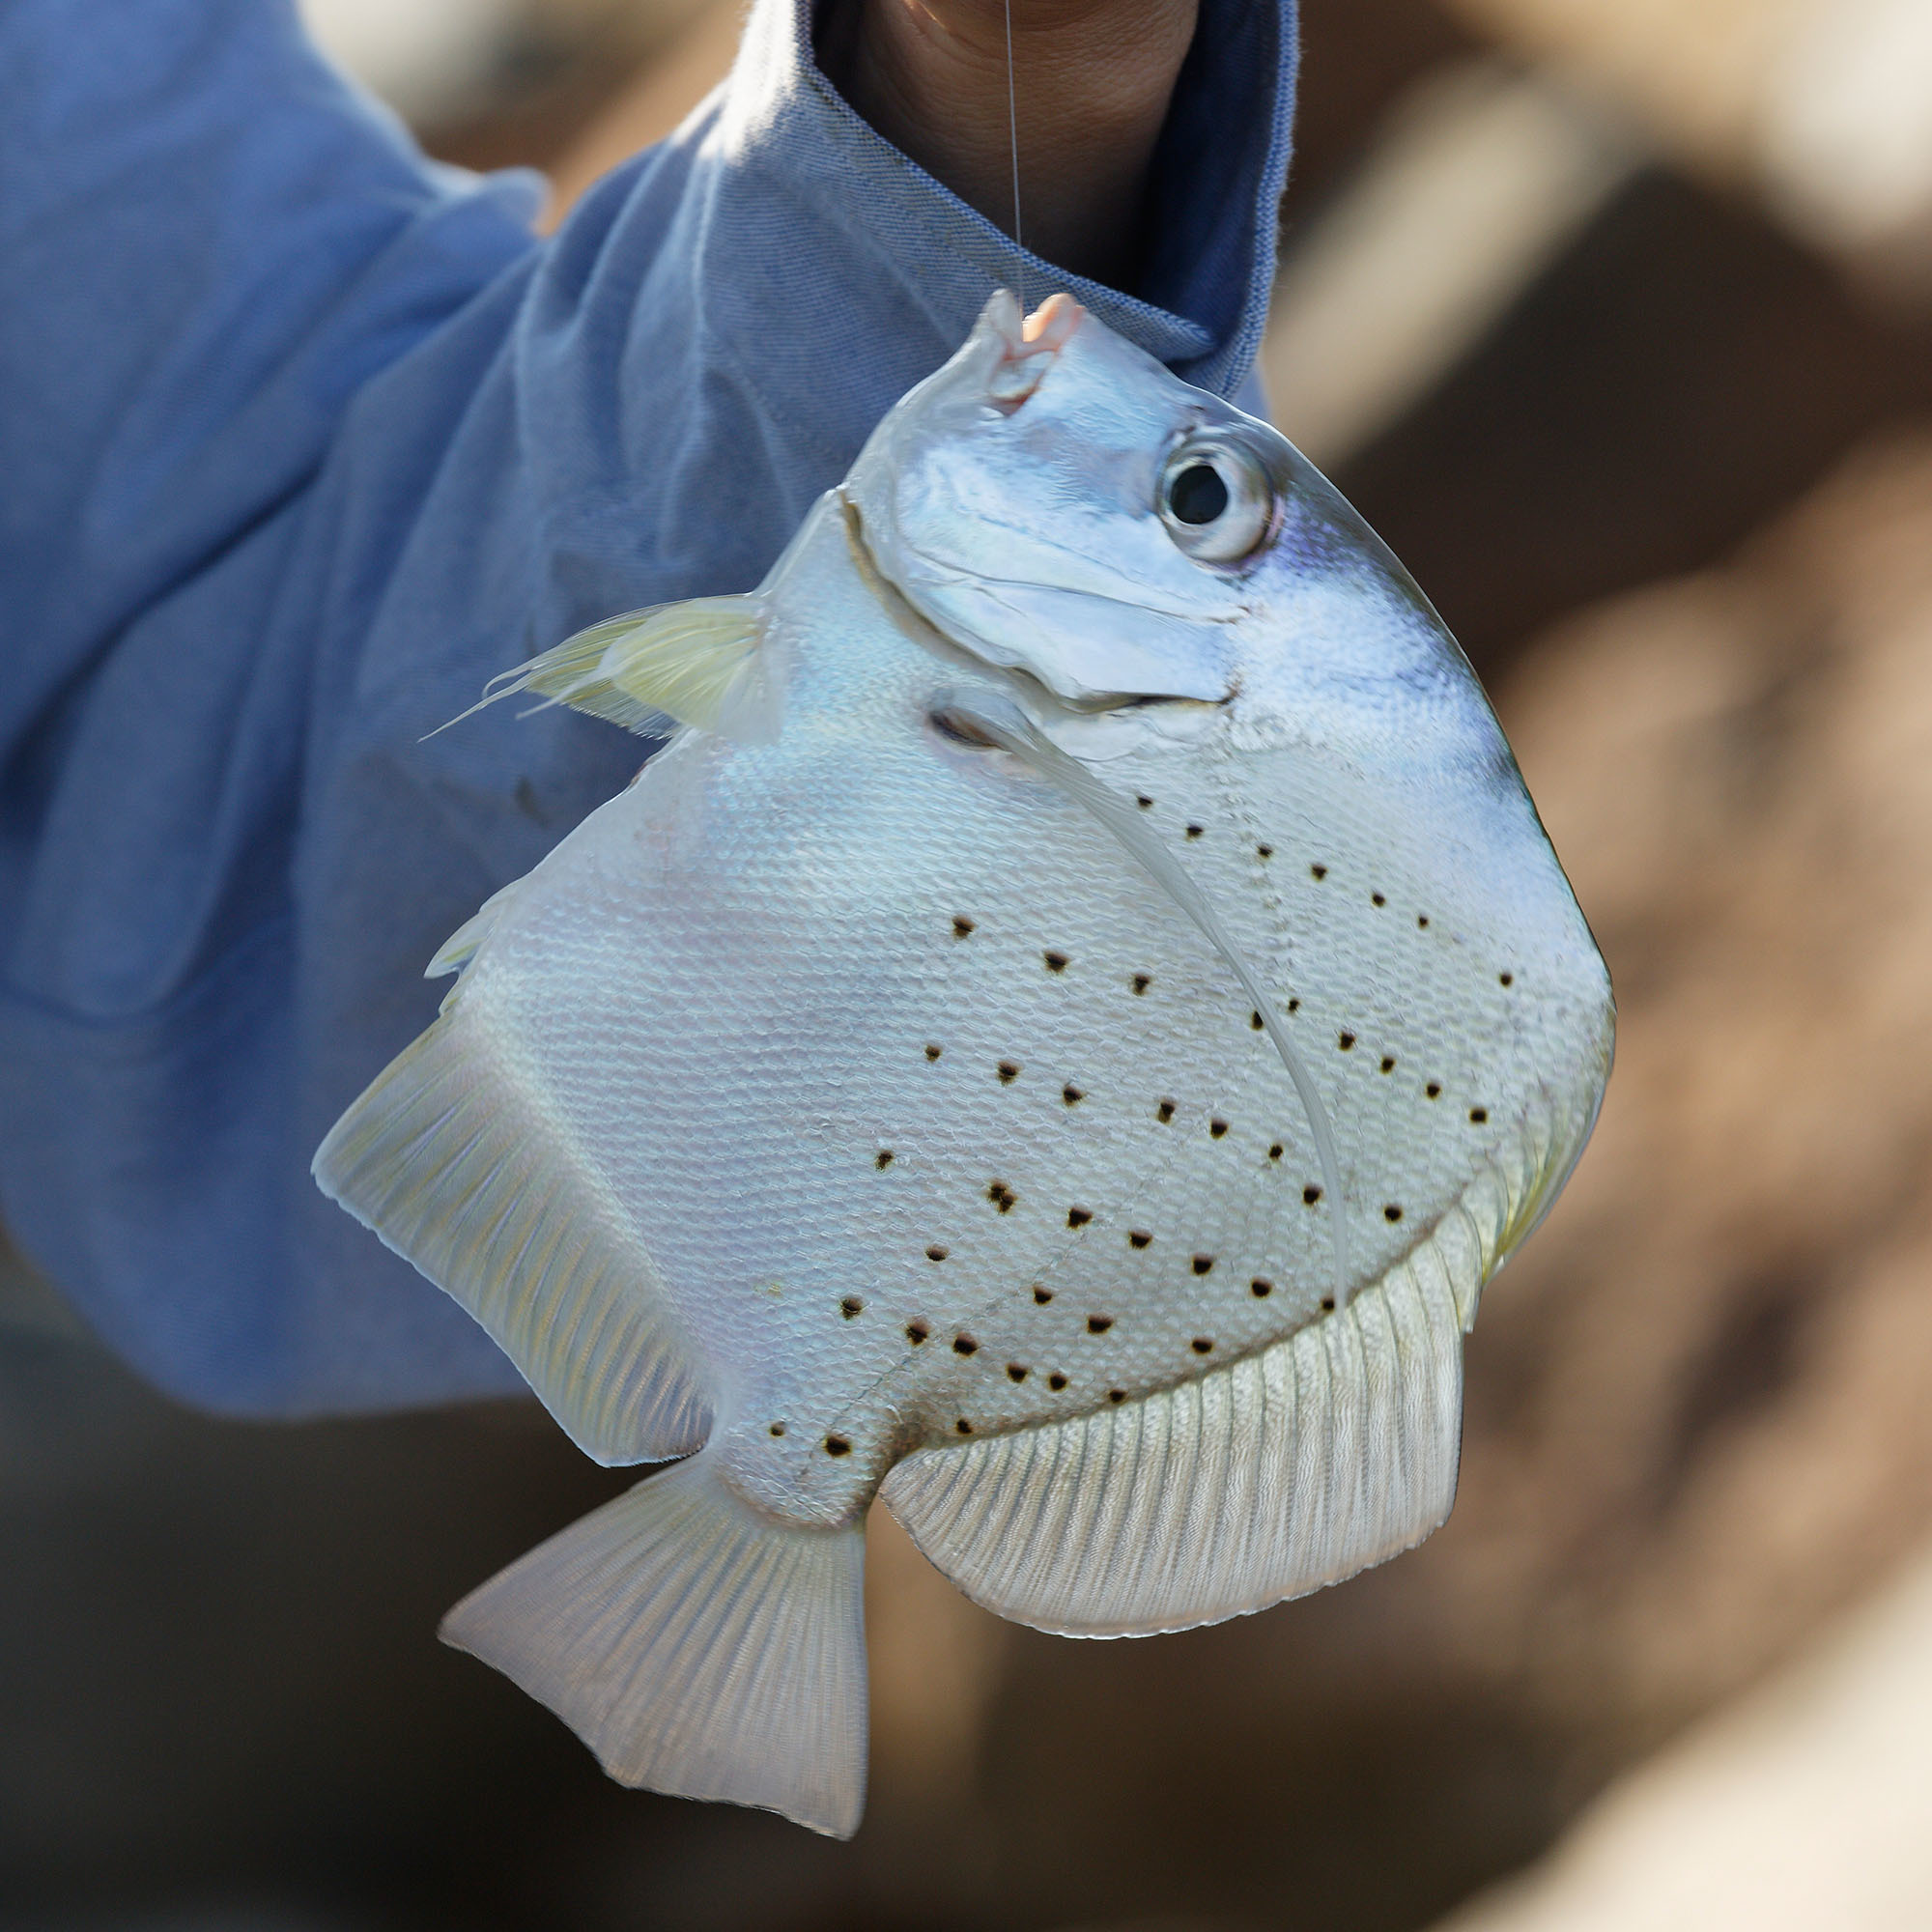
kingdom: Animalia
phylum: Chordata
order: Perciformes
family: Drepaneidae
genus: Drepane
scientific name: Drepane punctata
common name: Spotted sicklefish
